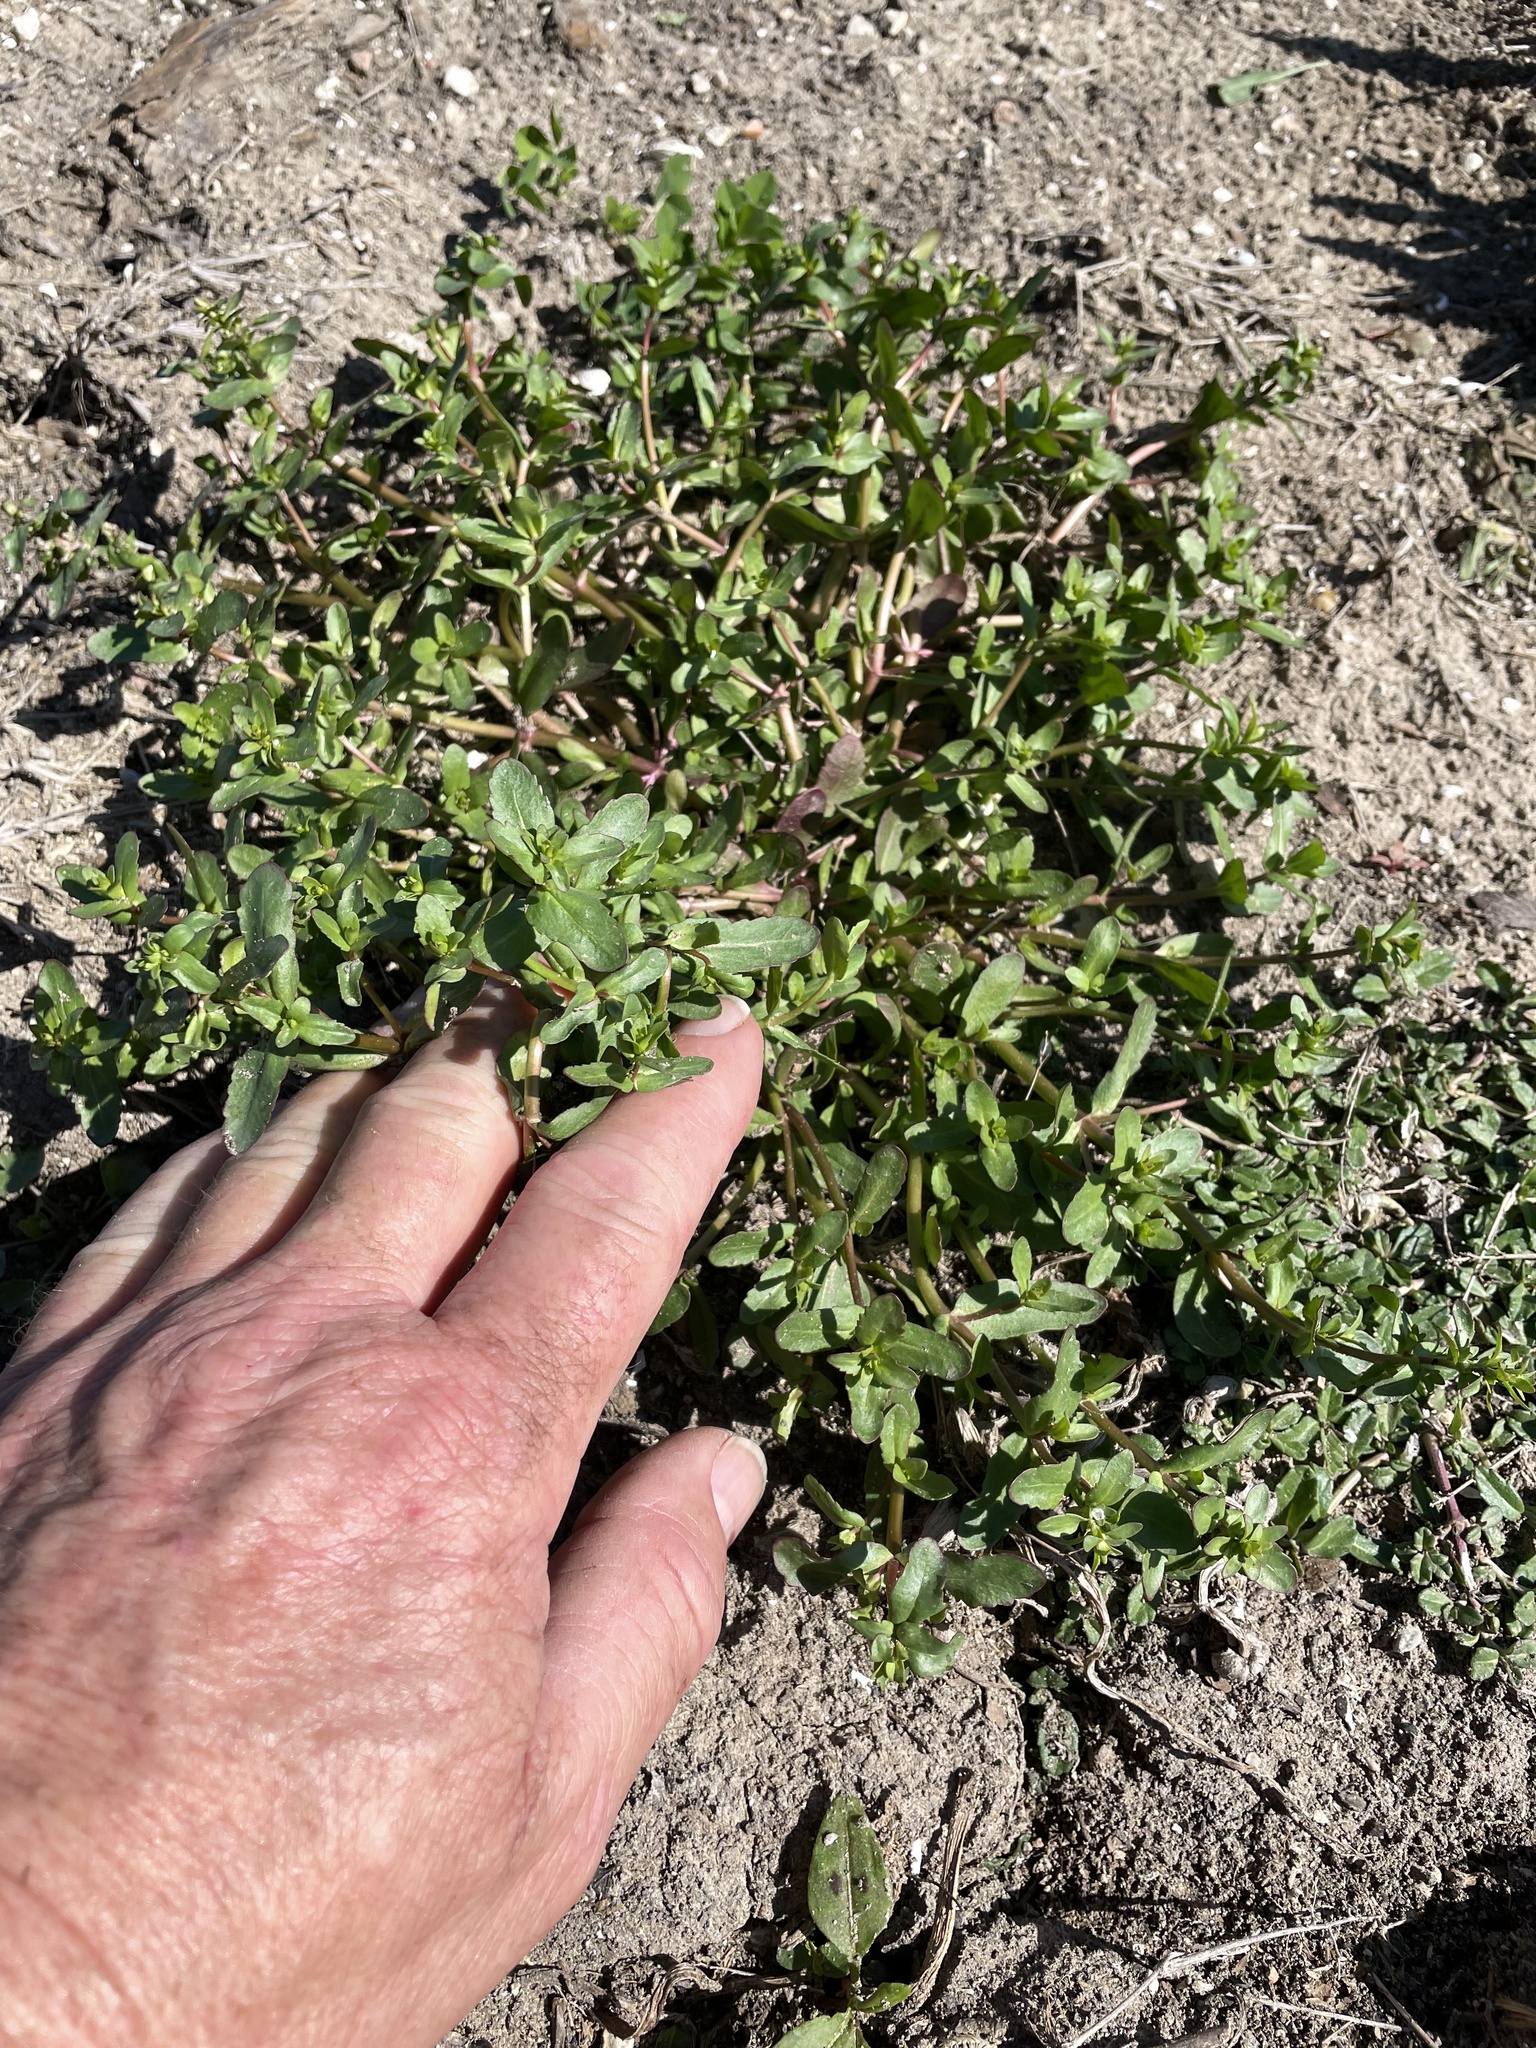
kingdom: Plantae
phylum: Tracheophyta
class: Magnoliopsida
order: Lamiales
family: Plantaginaceae
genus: Veronica
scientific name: Veronica peregrina
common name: Neckweed
